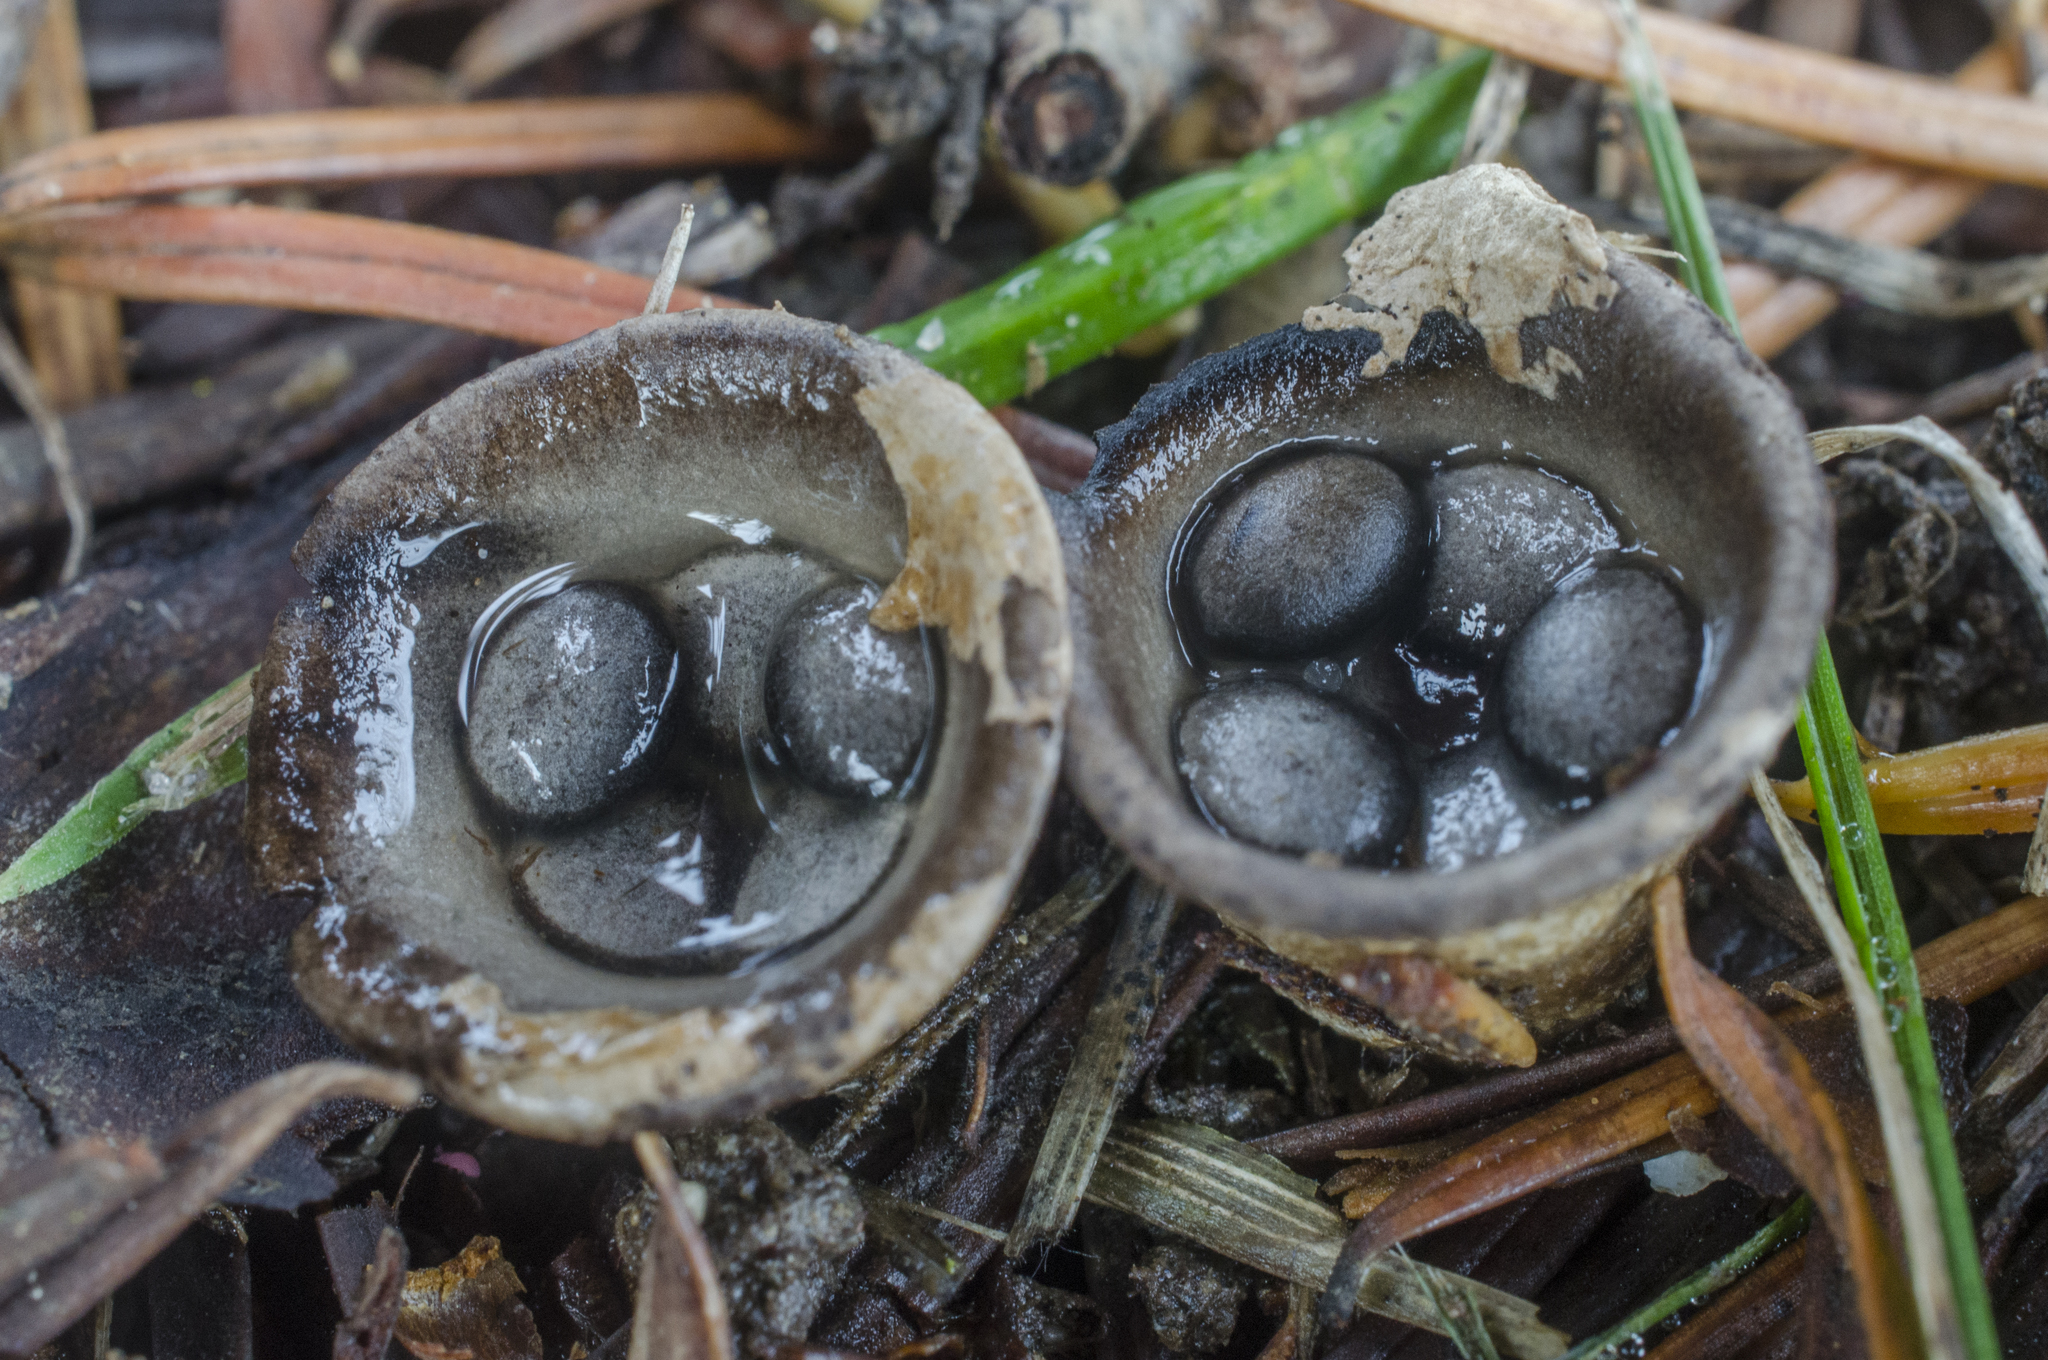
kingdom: Fungi
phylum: Basidiomycota
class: Agaricomycetes
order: Agaricales
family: Agaricaceae
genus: Cyathus
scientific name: Cyathus olla
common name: Field bird's nest
